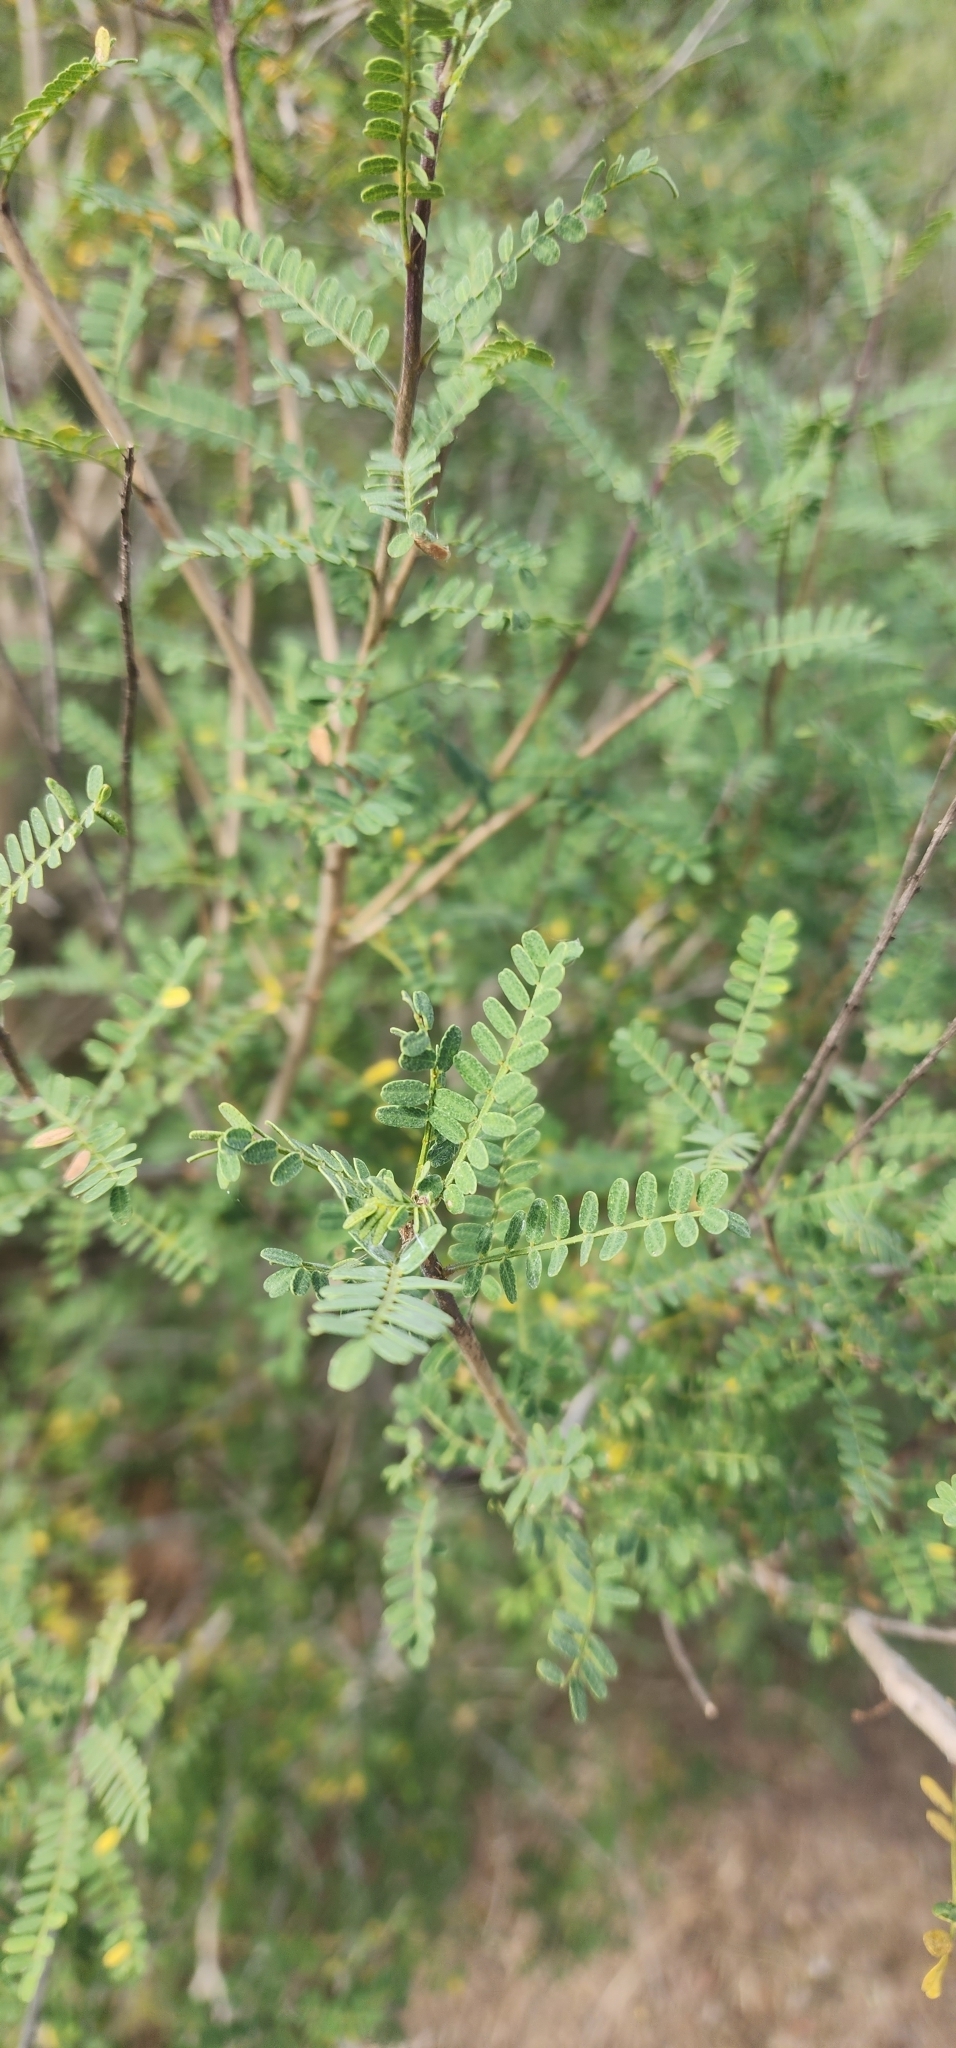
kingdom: Plantae
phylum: Tracheophyta
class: Magnoliopsida
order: Fabales
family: Fabaceae
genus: Eysenhardtia
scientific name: Eysenhardtia texana
